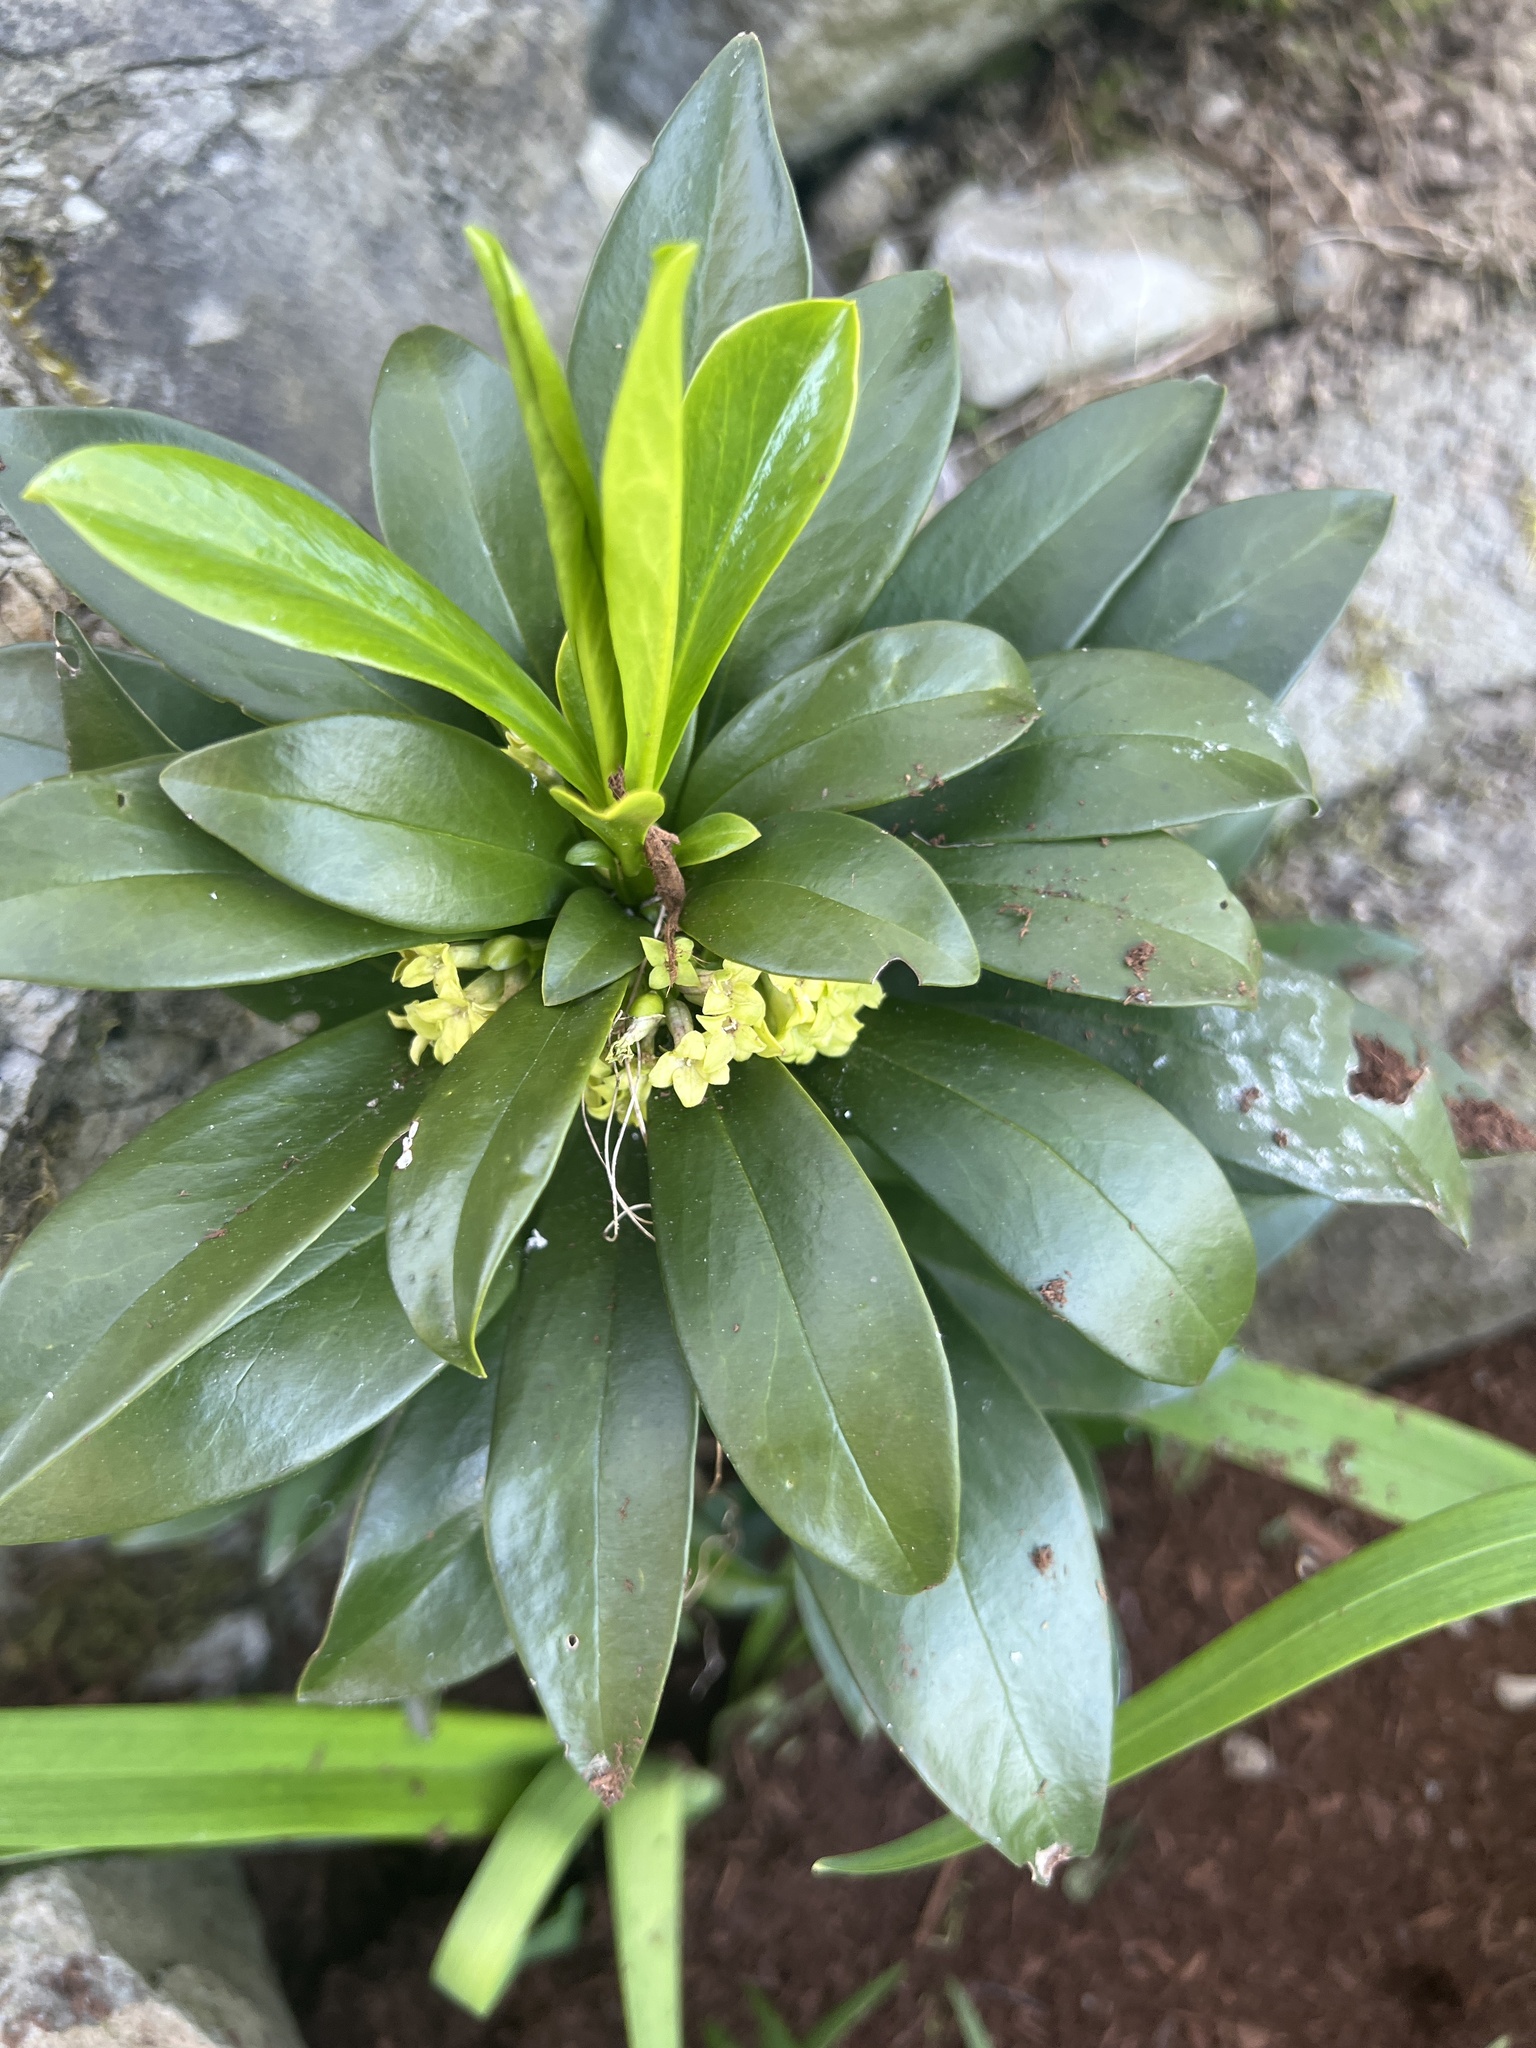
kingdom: Plantae
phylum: Tracheophyta
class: Magnoliopsida
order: Malvales
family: Thymelaeaceae
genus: Daphne
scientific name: Daphne laureola
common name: Spurge-laurel
